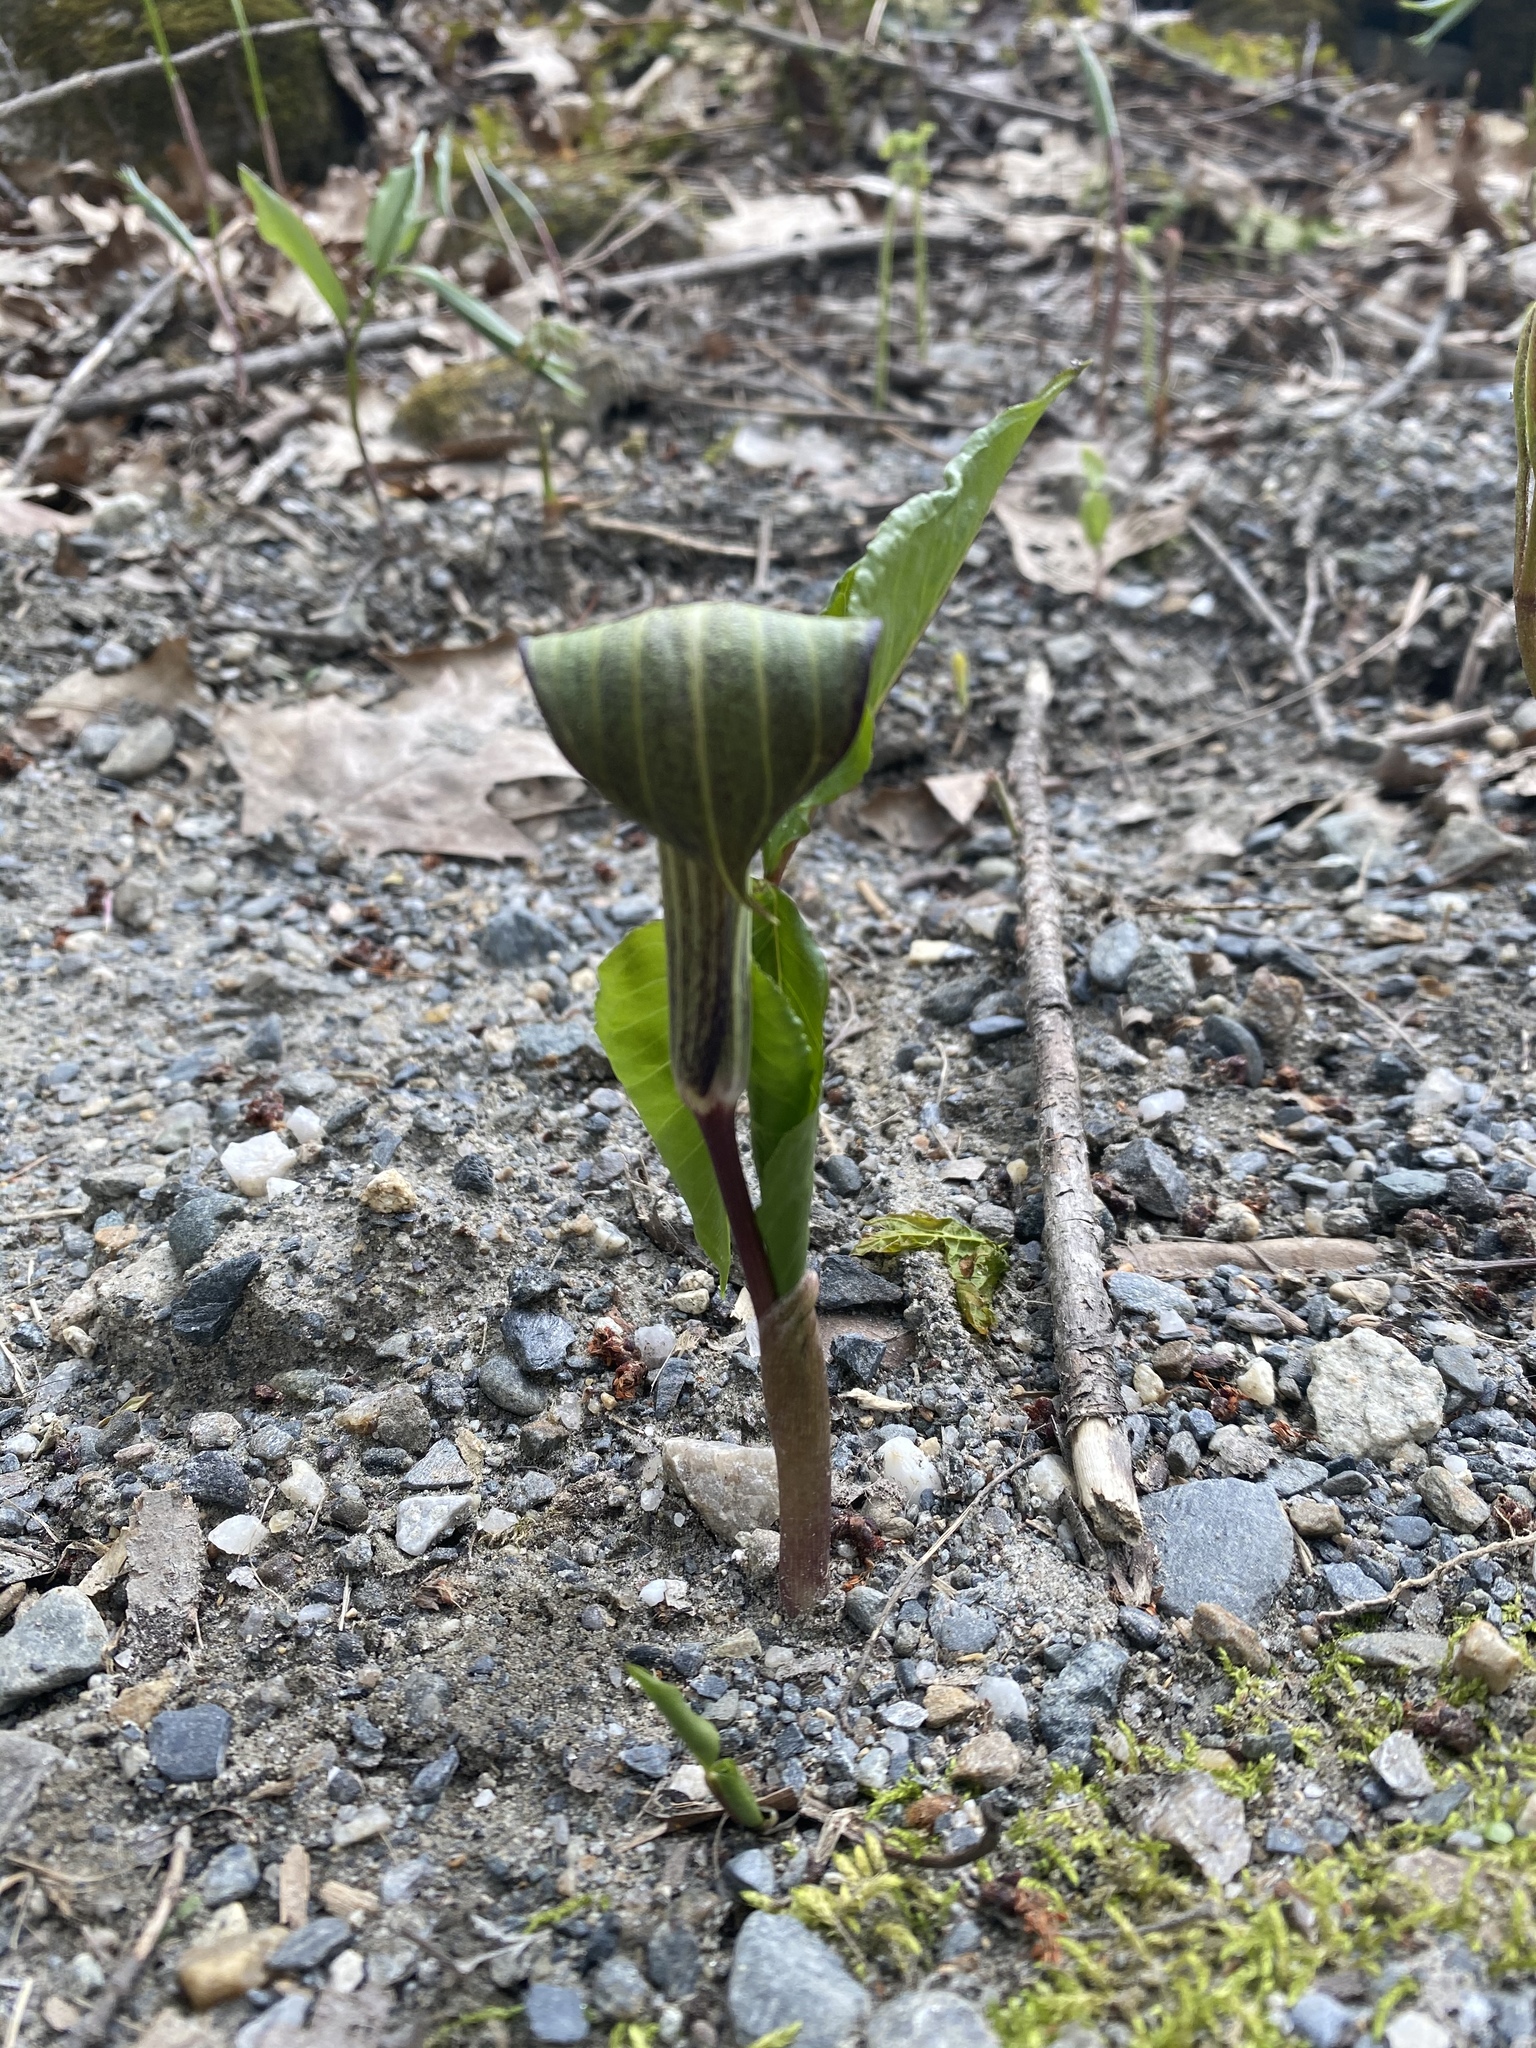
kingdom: Plantae
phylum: Tracheophyta
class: Liliopsida
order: Alismatales
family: Araceae
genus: Arisaema
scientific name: Arisaema triphyllum
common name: Jack-in-the-pulpit
